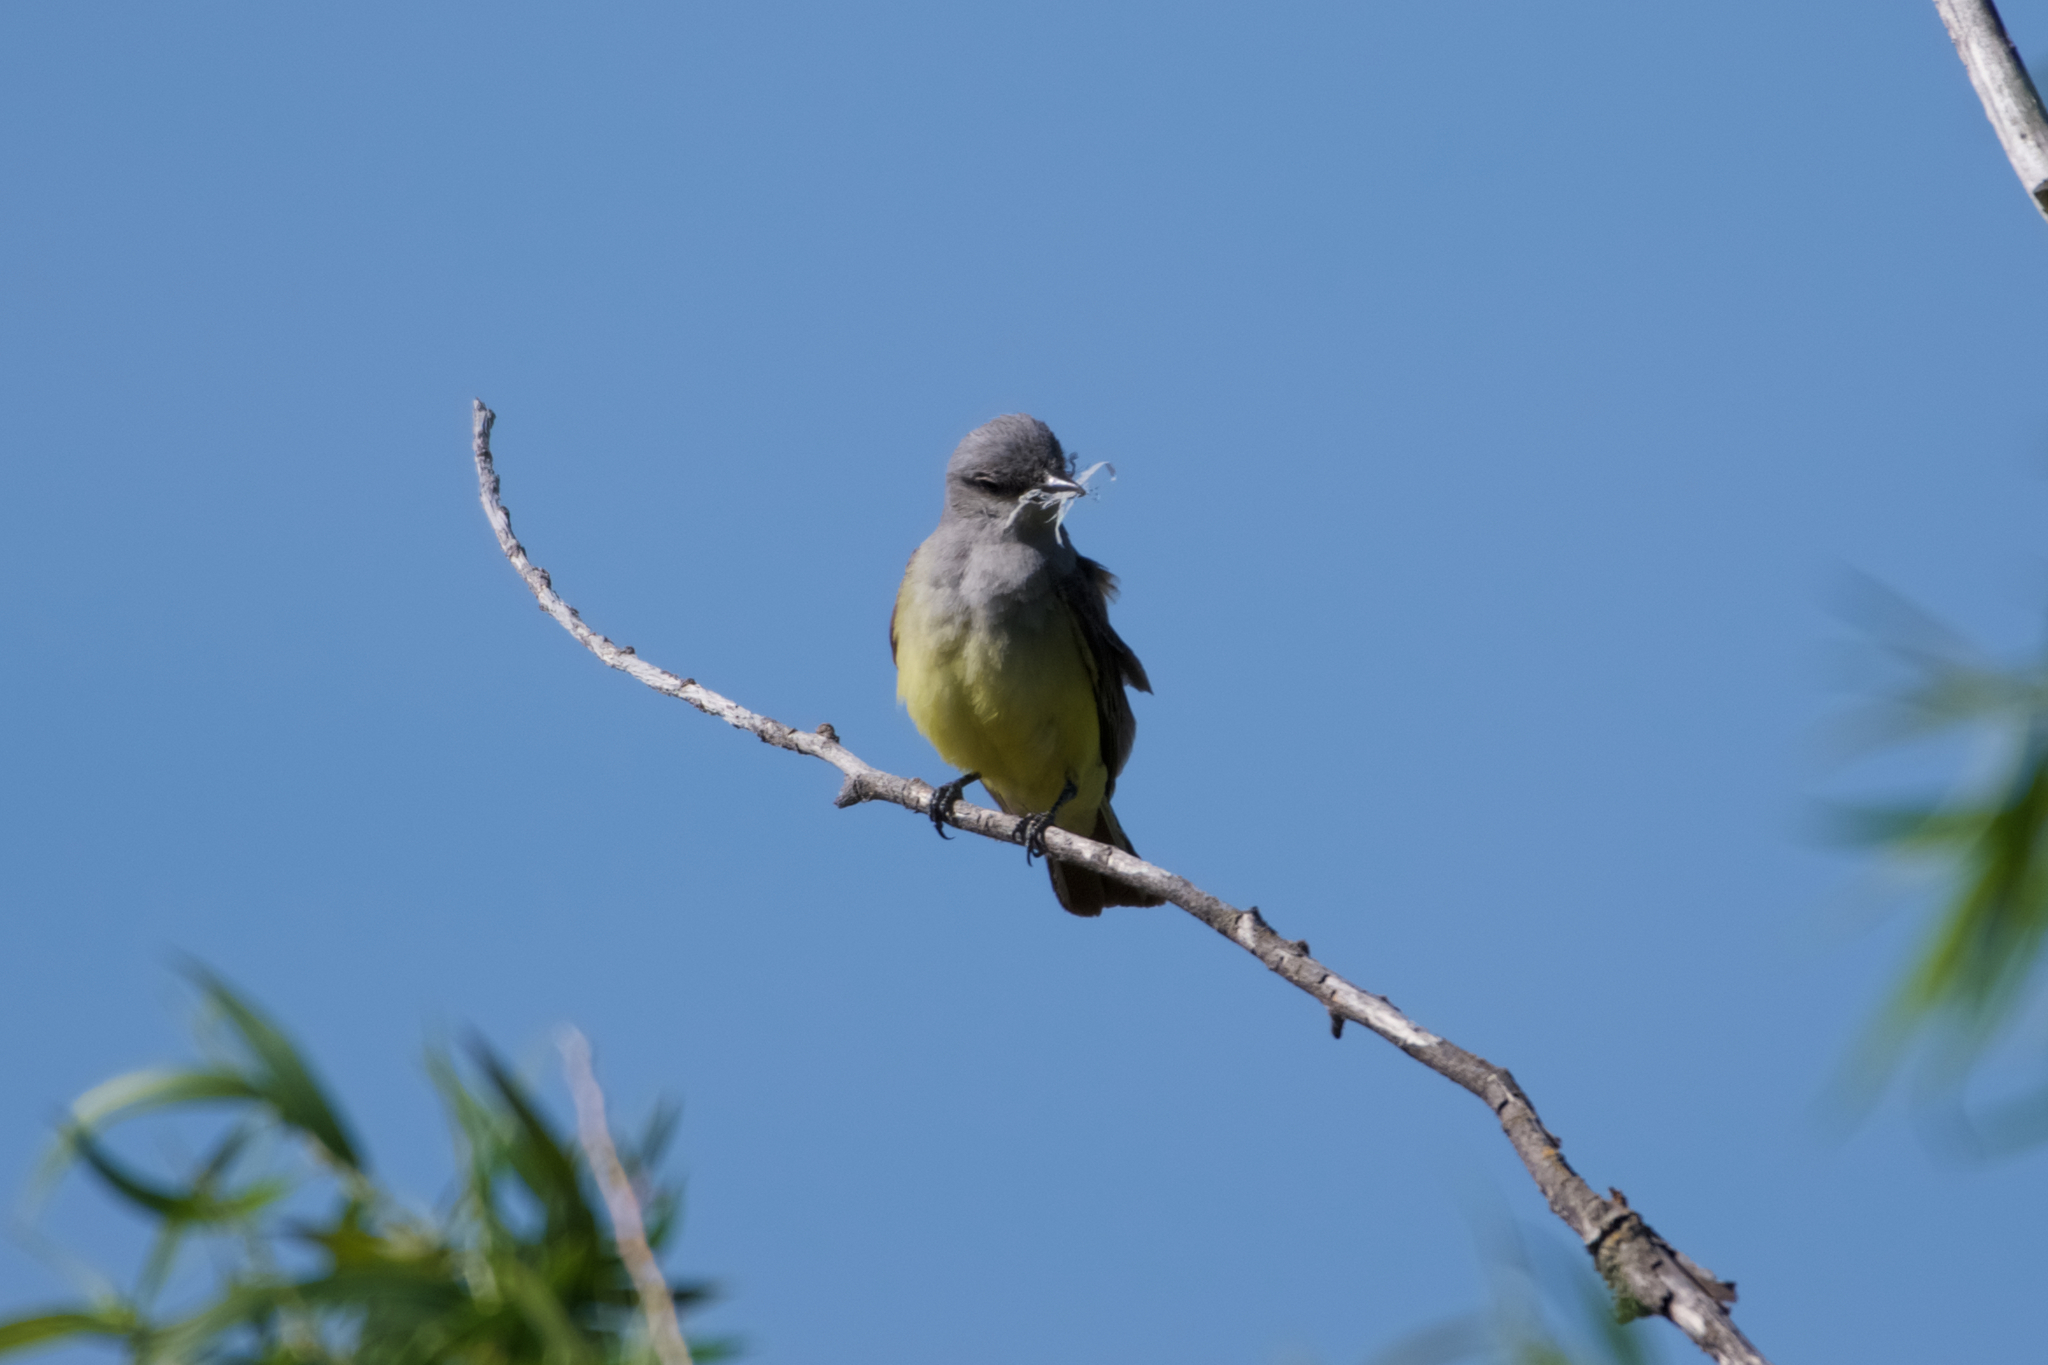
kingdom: Animalia
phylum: Chordata
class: Aves
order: Passeriformes
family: Tyrannidae
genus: Tyrannus
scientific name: Tyrannus verticalis
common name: Western kingbird
